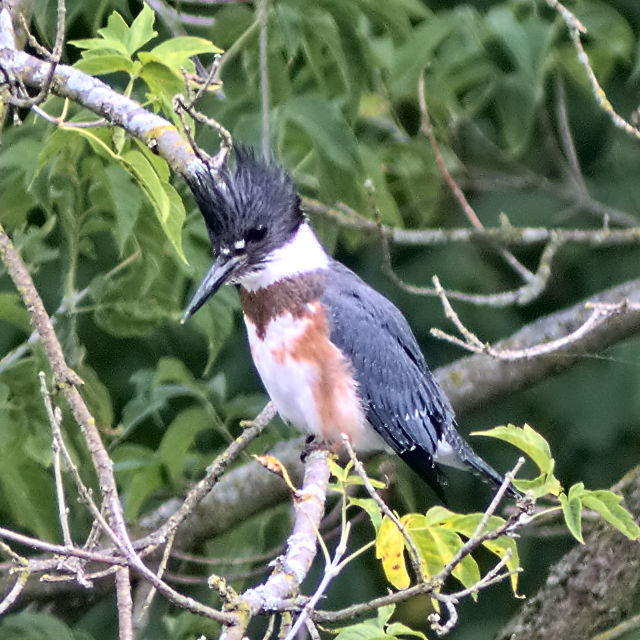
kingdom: Animalia
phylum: Chordata
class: Aves
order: Coraciiformes
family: Alcedinidae
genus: Megaceryle
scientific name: Megaceryle alcyon
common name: Belted kingfisher
